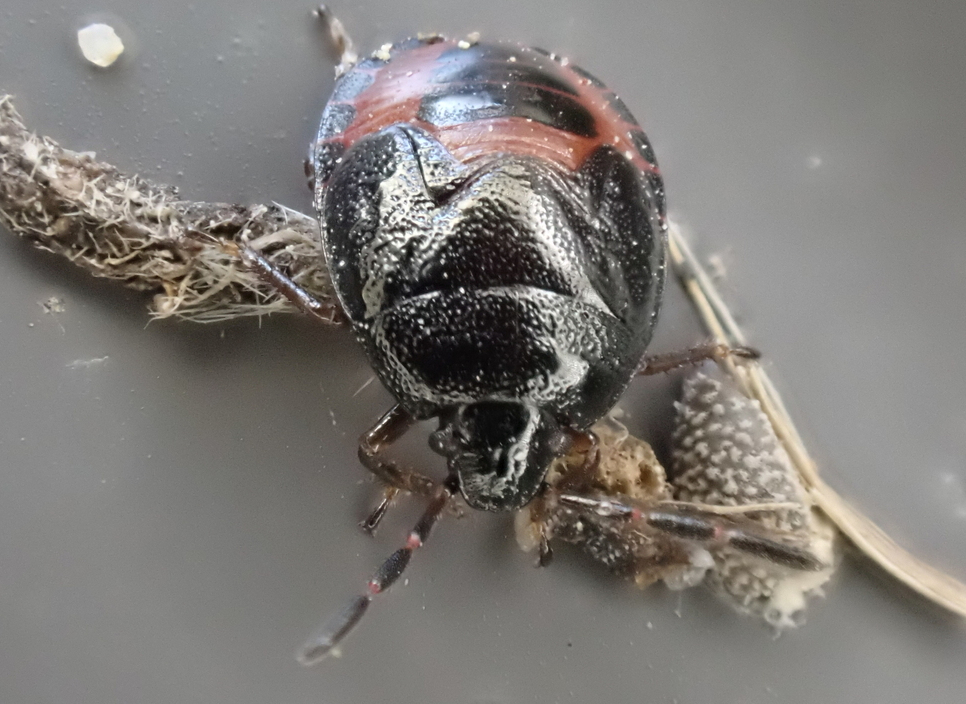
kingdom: Animalia
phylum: Arthropoda
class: Insecta
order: Hemiptera
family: Cydnidae
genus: Sehirus
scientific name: Sehirus cinctus
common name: White-margined burrower bug
